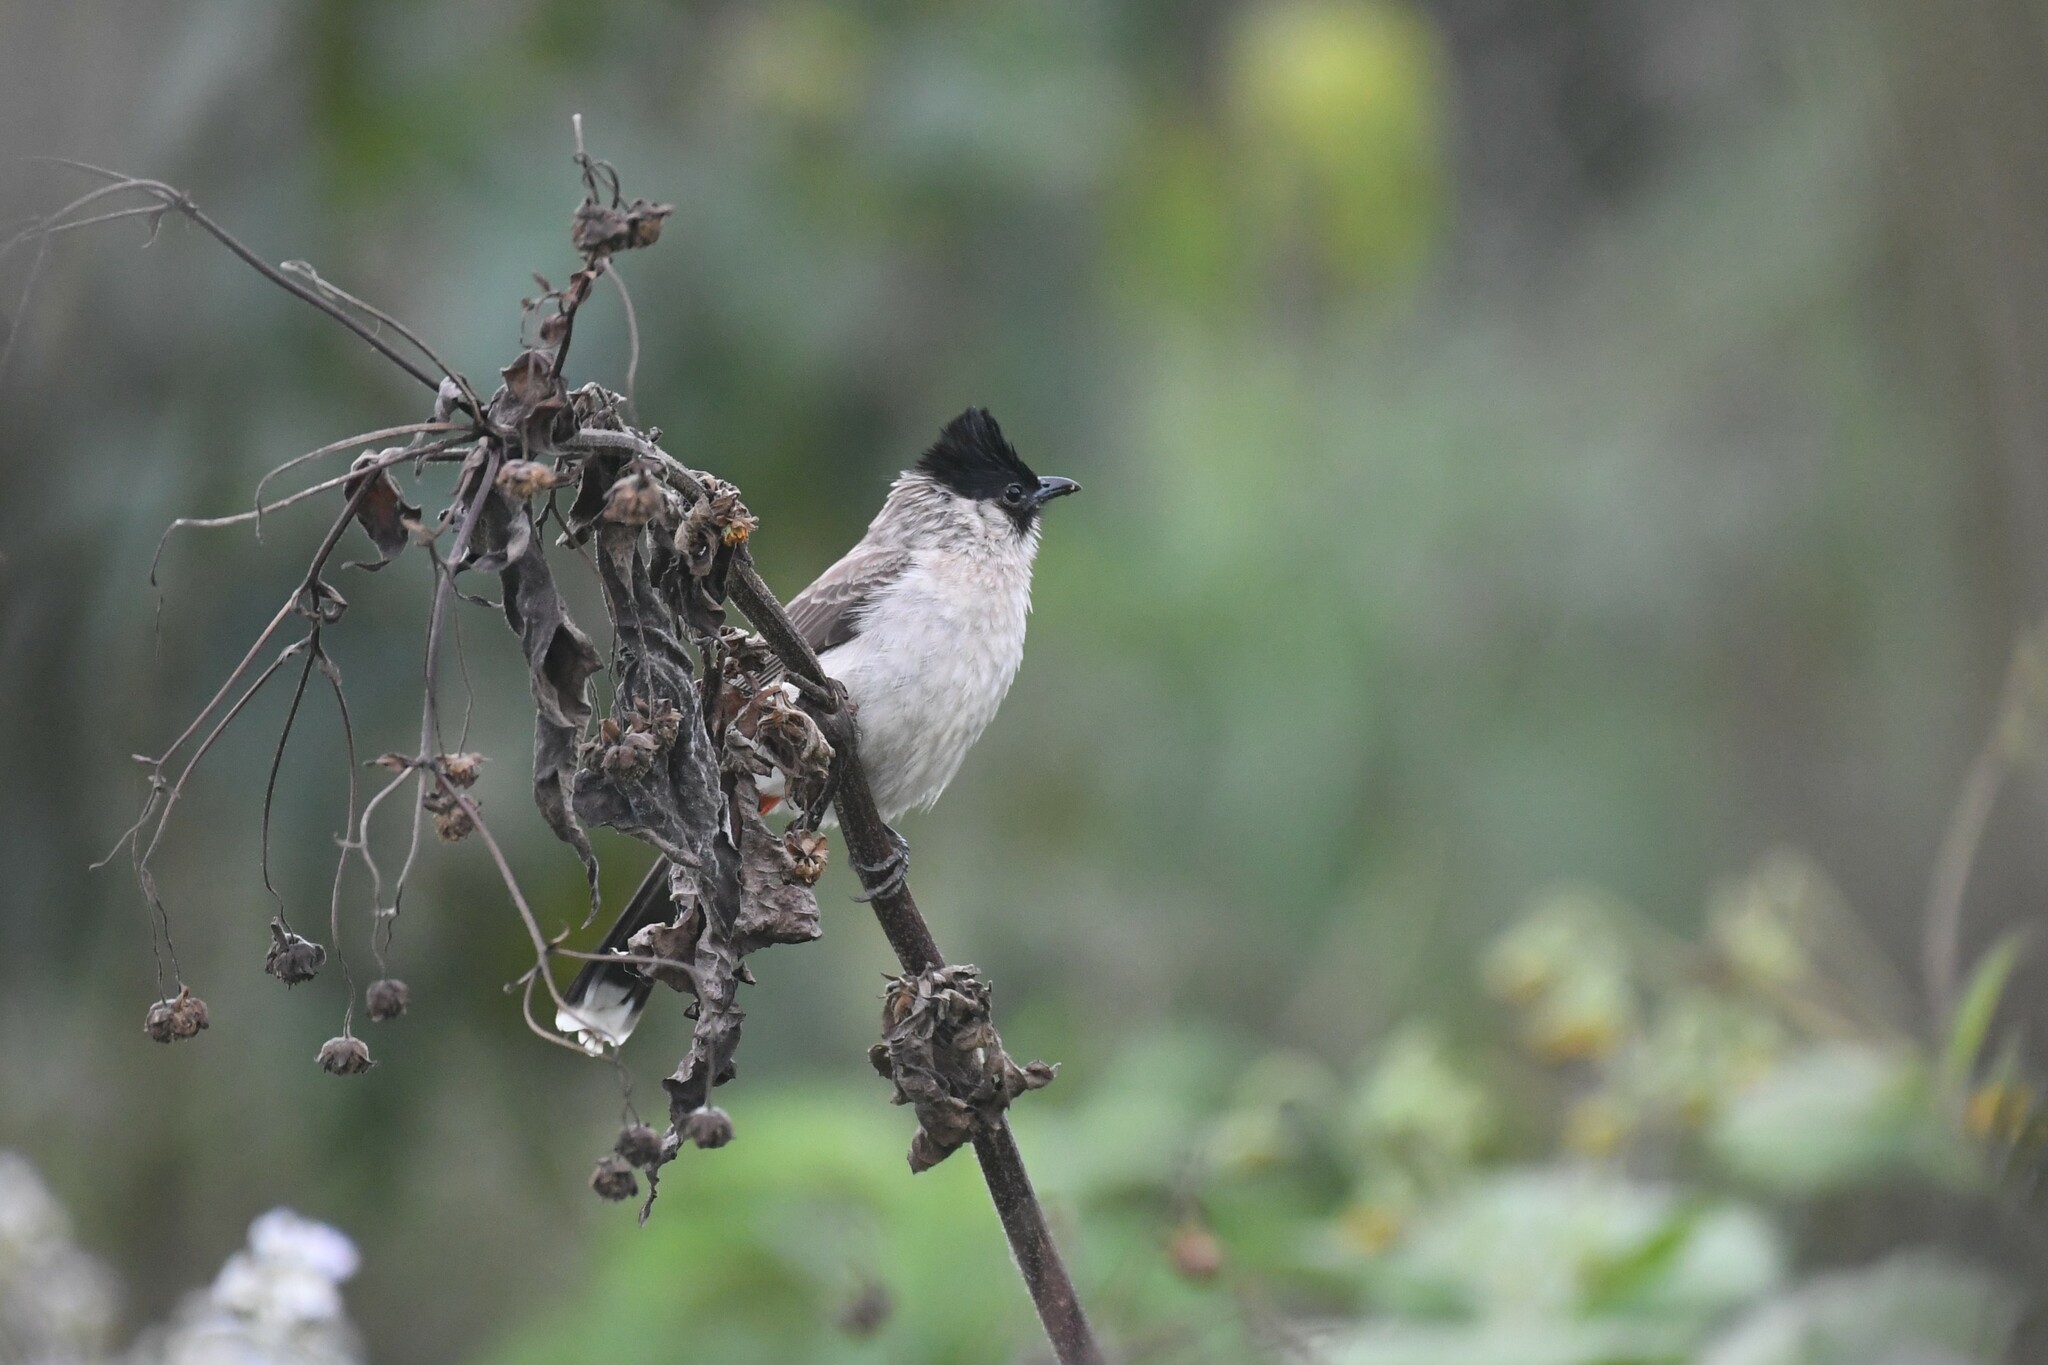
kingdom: Animalia
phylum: Chordata
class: Aves
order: Passeriformes
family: Pycnonotidae
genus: Pycnonotus
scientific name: Pycnonotus aurigaster
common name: Sooty-headed bulbul
